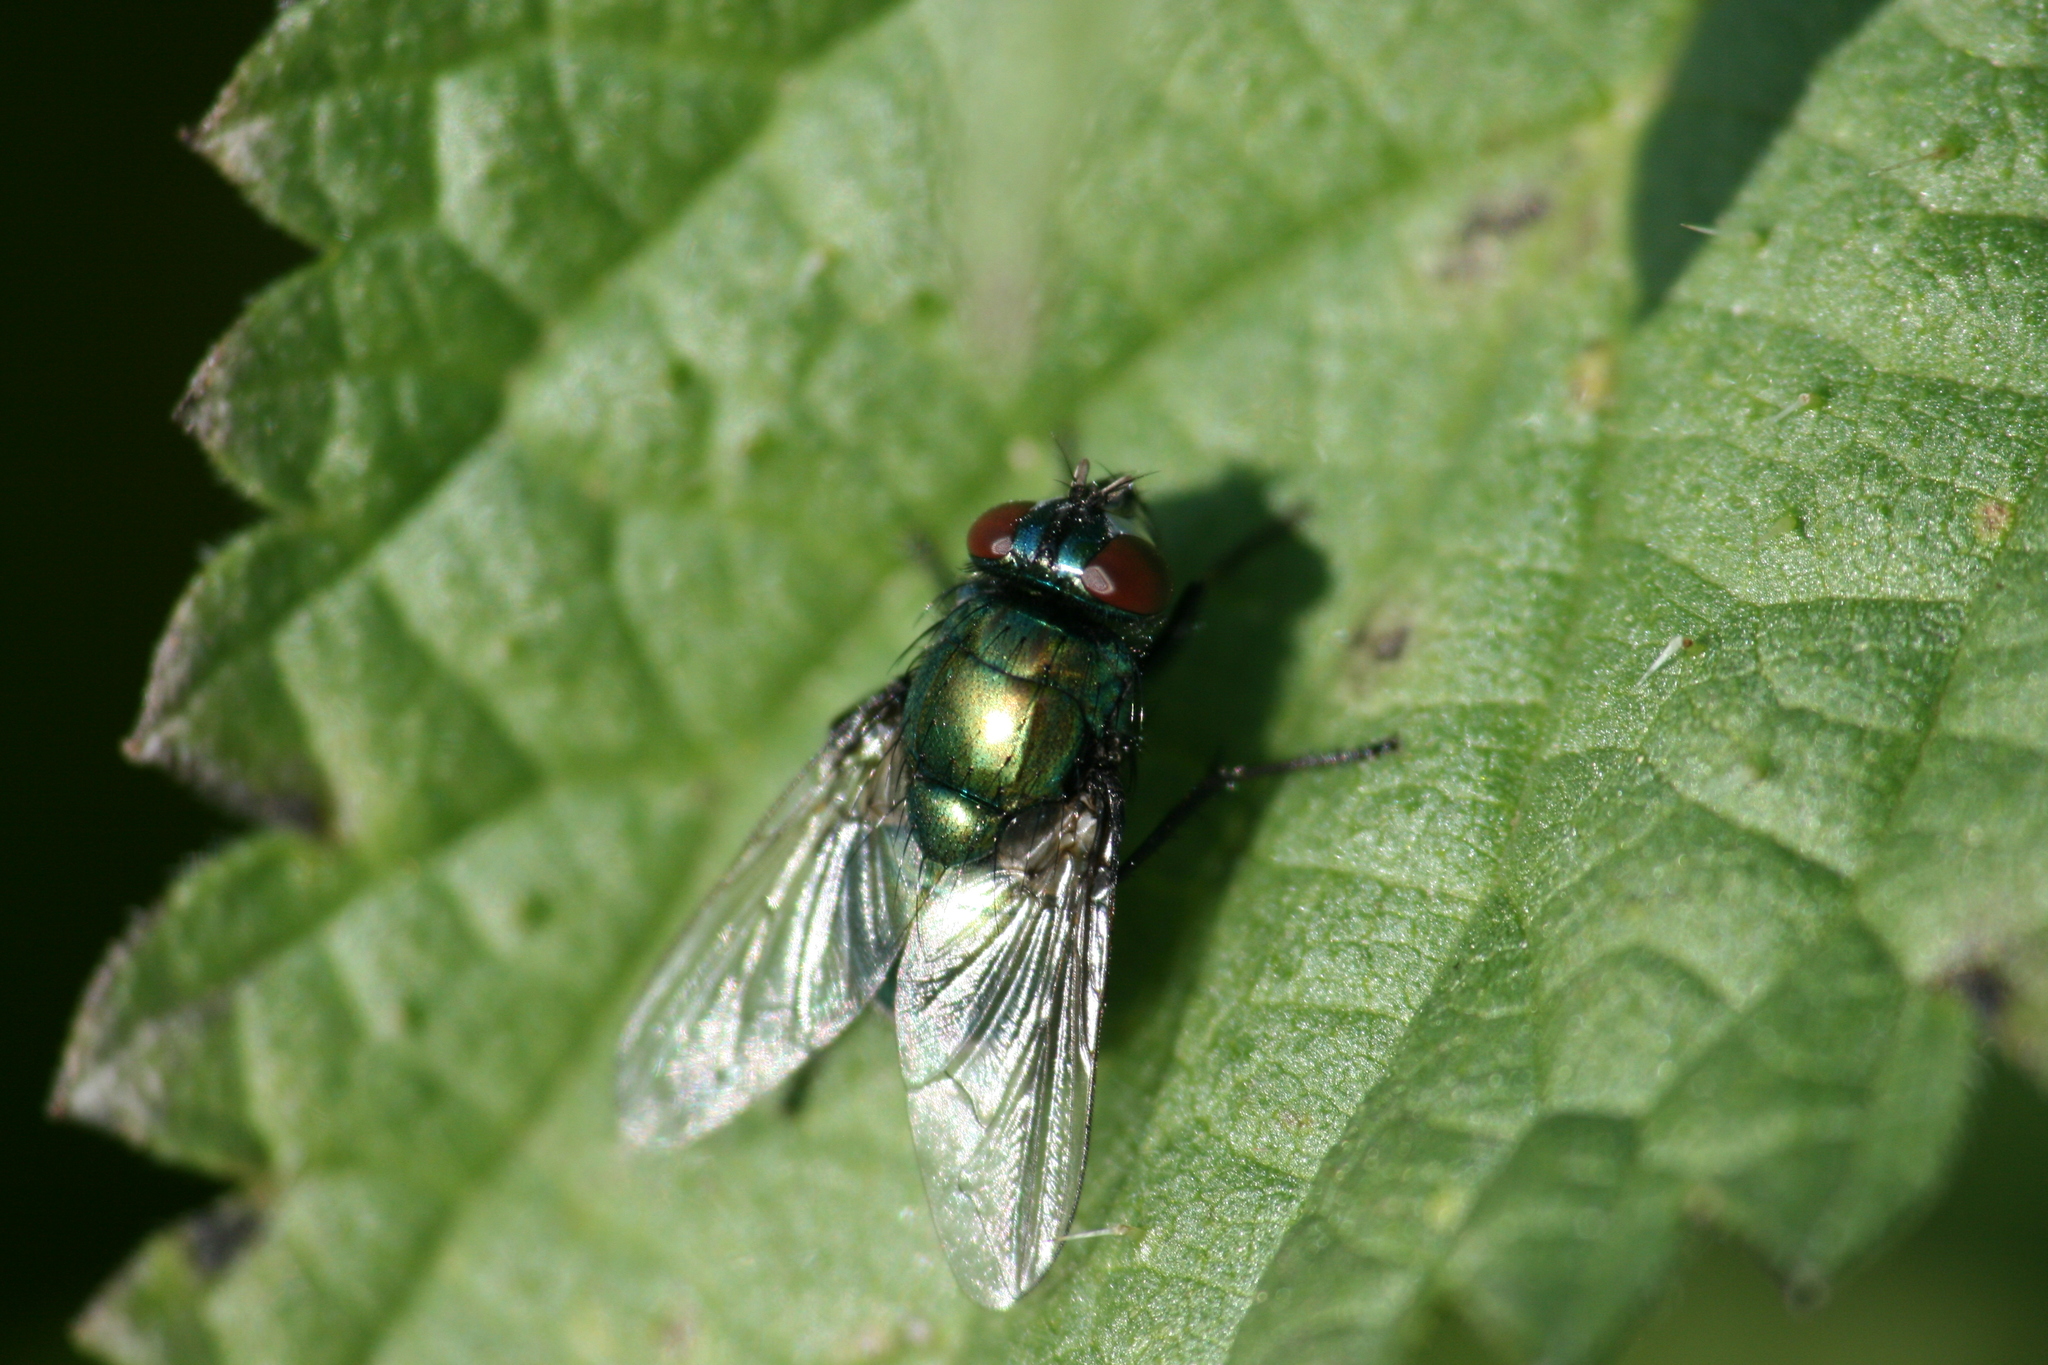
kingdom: Animalia
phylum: Arthropoda
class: Insecta
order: Diptera
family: Muscidae
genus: Neomyia
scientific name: Neomyia cornicina
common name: House fly
